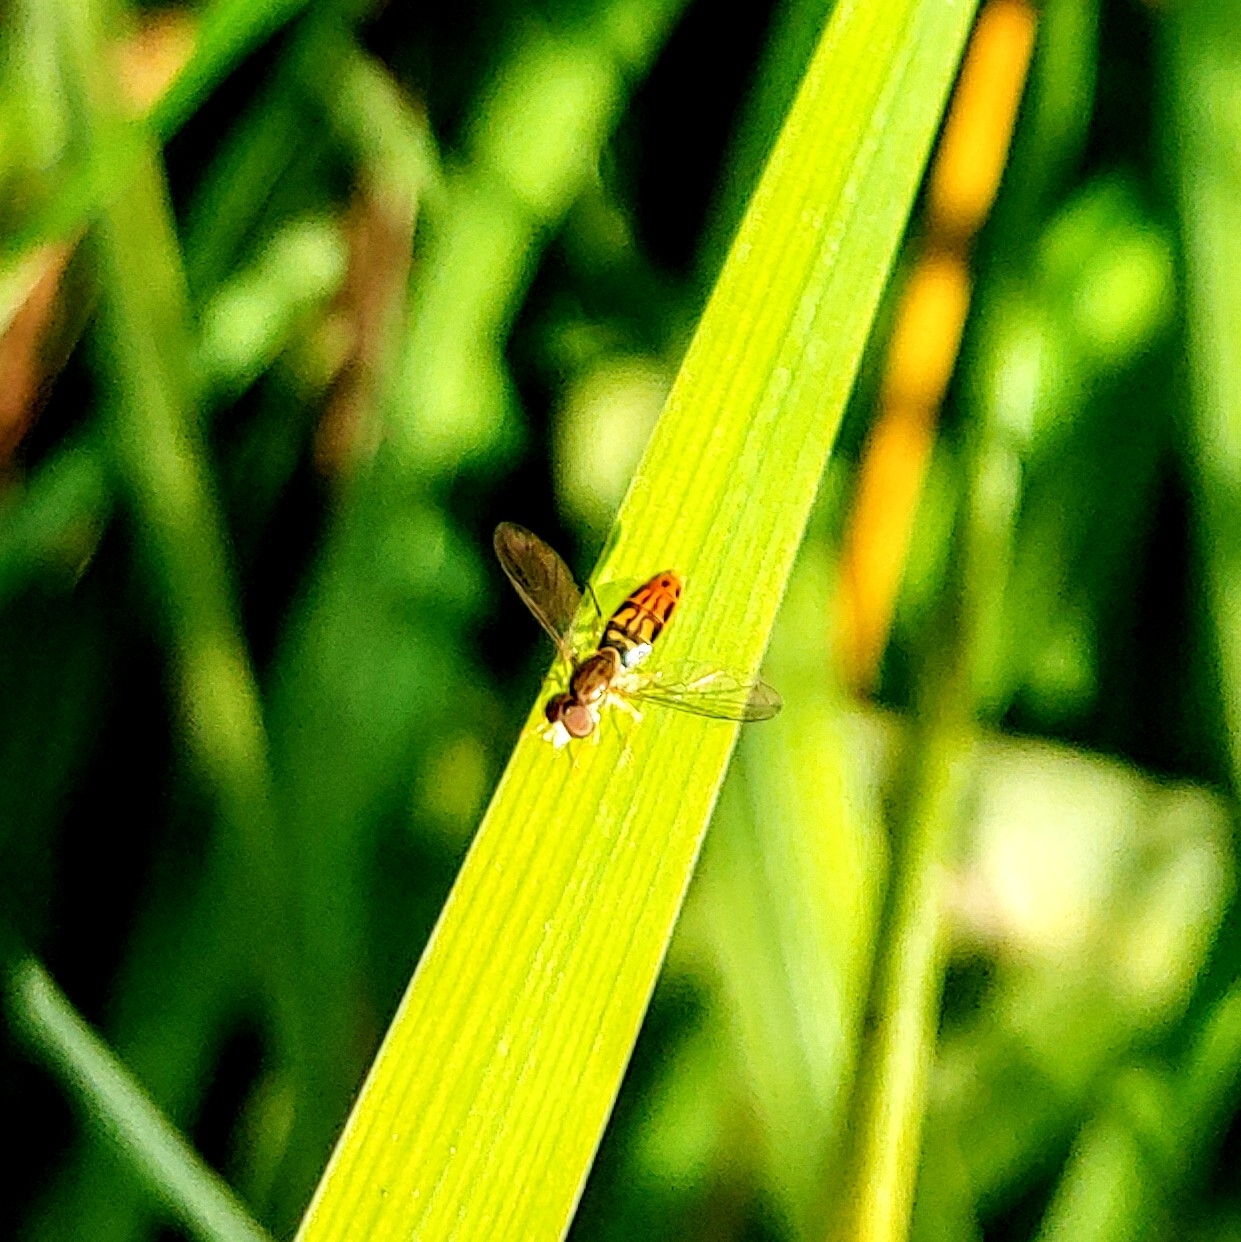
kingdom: Animalia
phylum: Arthropoda
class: Insecta
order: Diptera
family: Syrphidae
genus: Toxomerus
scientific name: Toxomerus marginatus
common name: Syrphid fly
